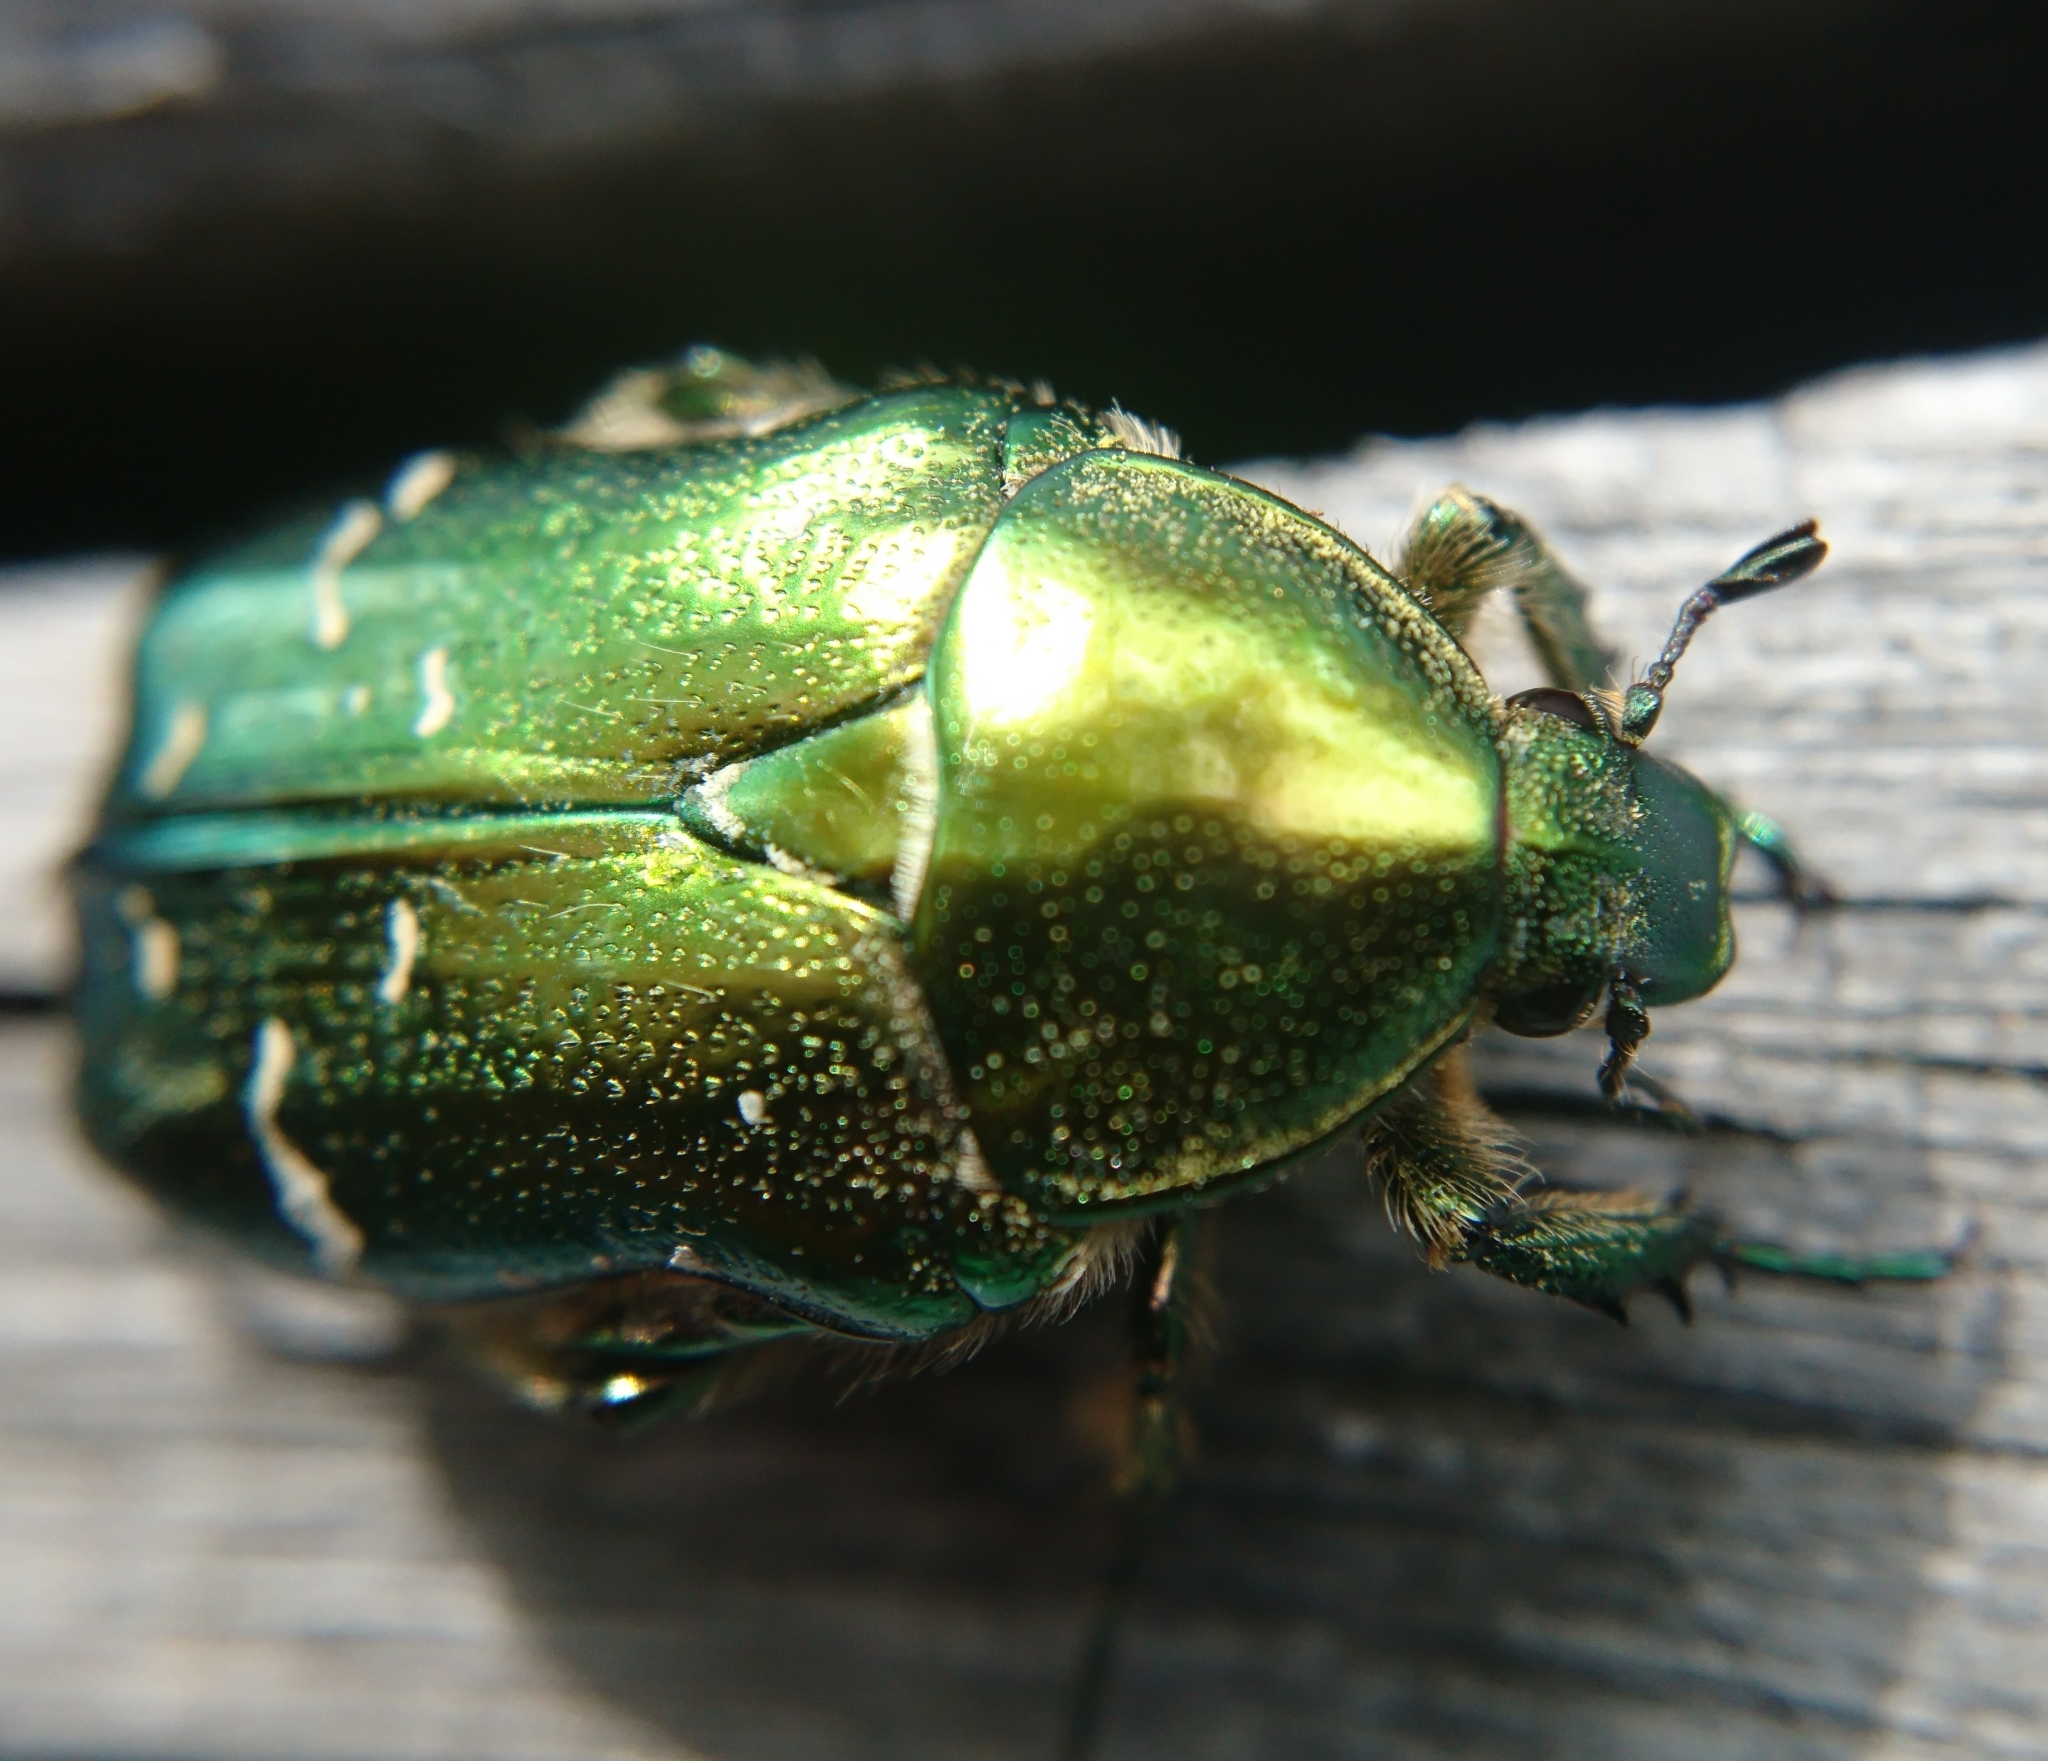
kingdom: Animalia
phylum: Arthropoda
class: Insecta
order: Coleoptera
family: Scarabaeidae
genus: Cetonia
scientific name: Cetonia aurata
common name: Rose chafer
